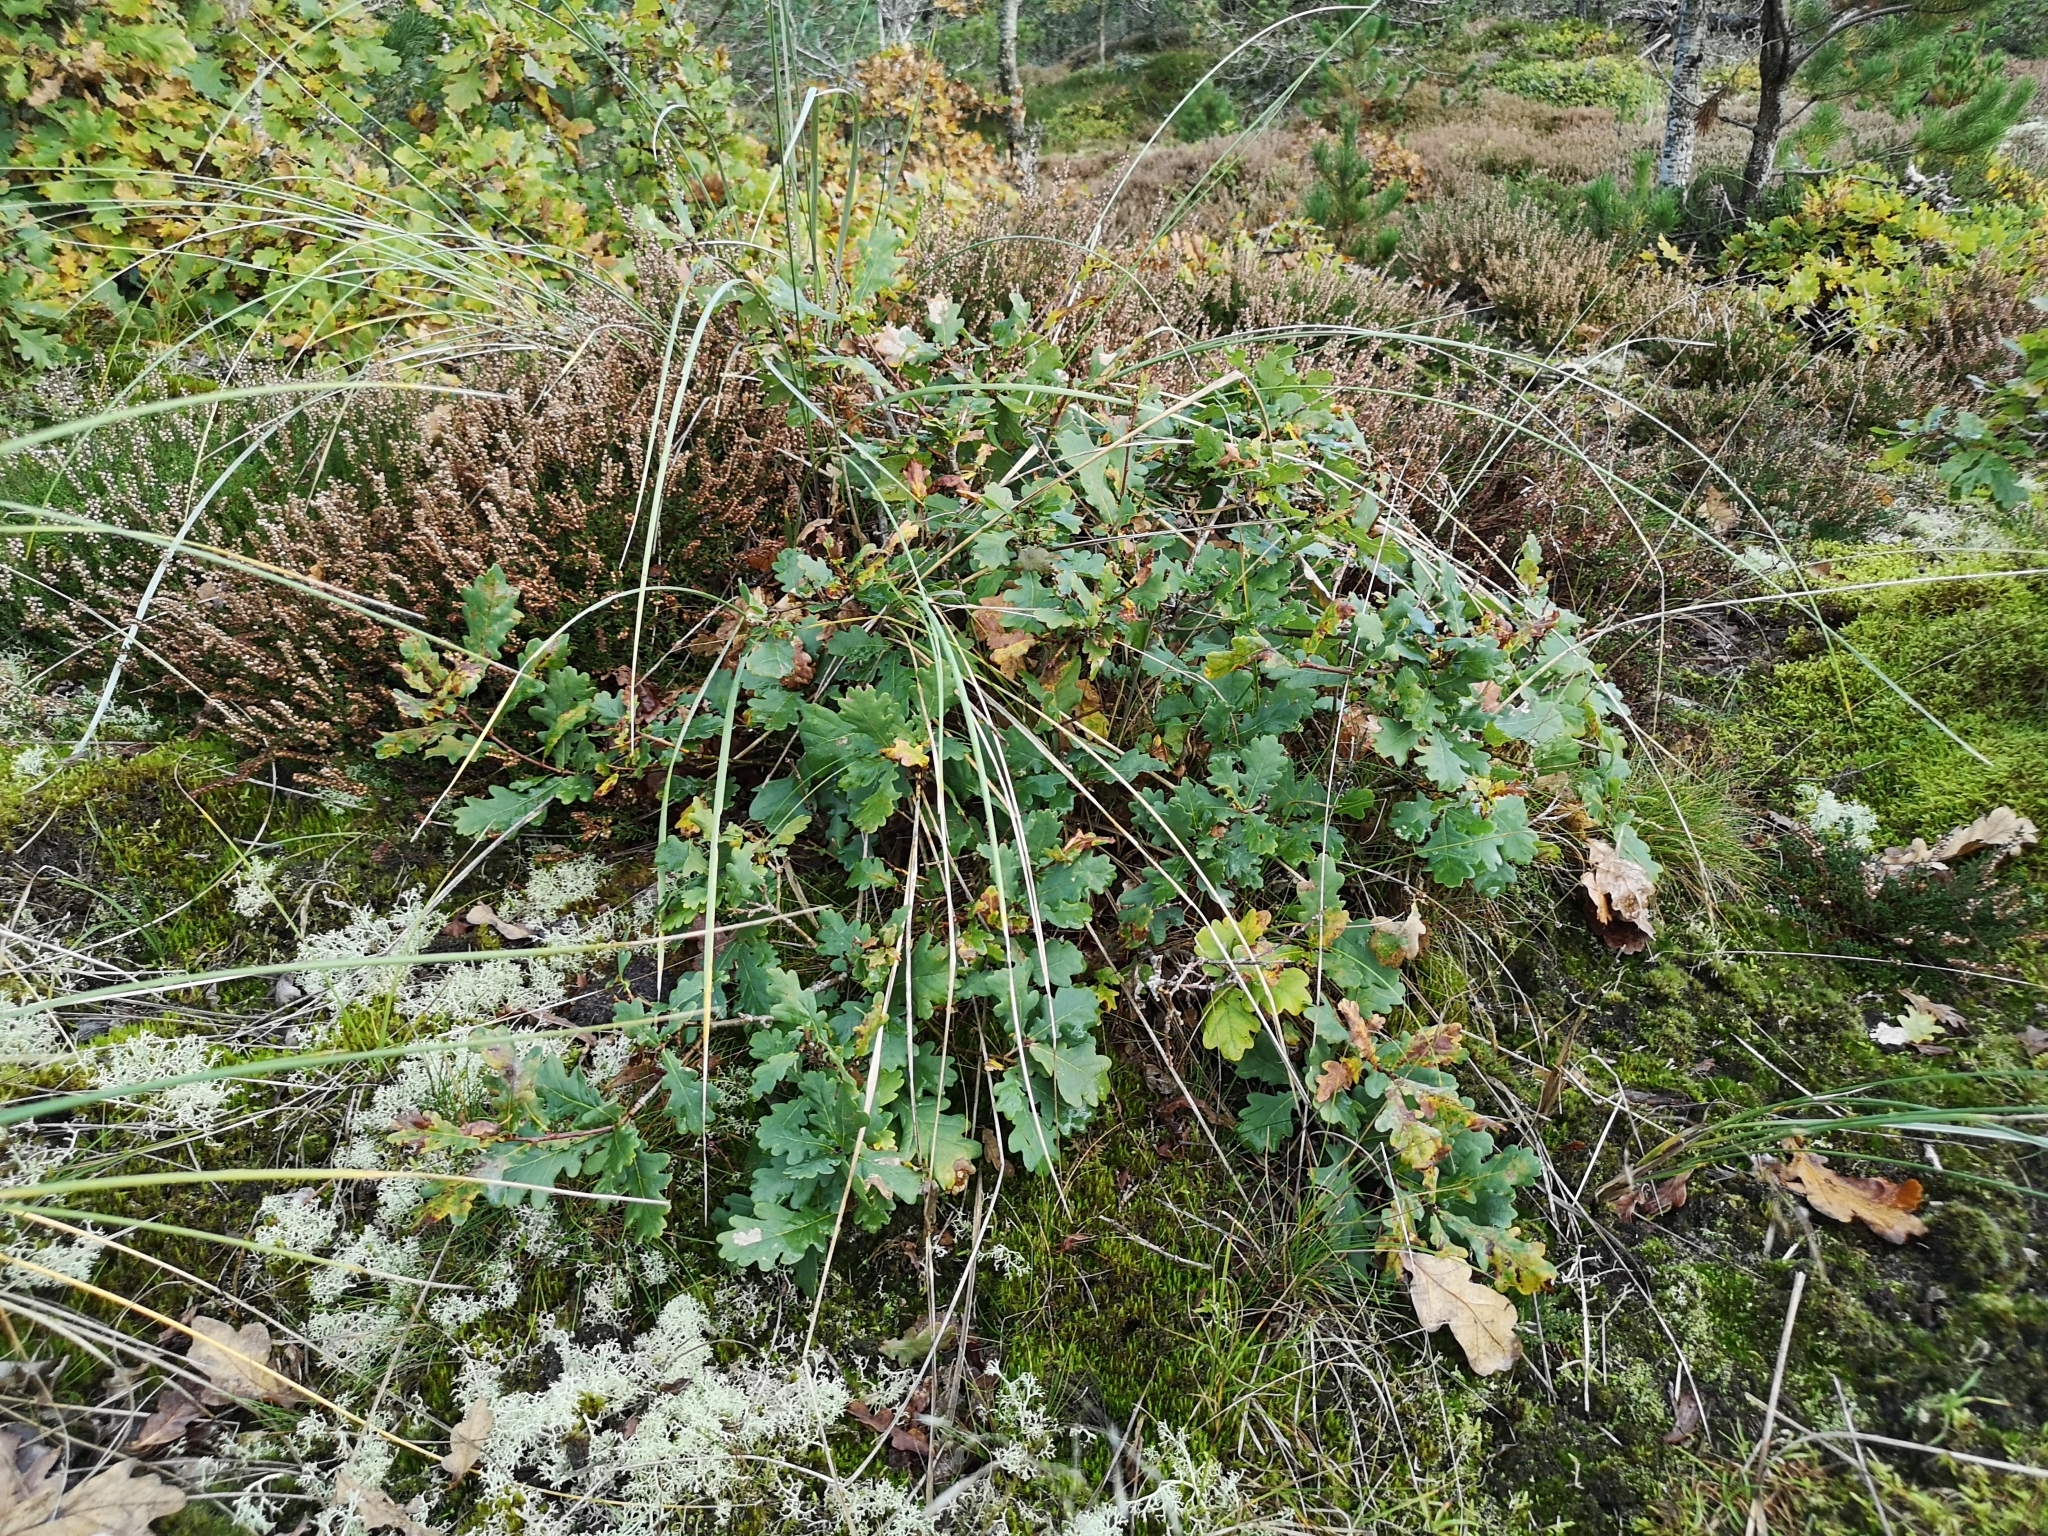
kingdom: Plantae
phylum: Tracheophyta
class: Magnoliopsida
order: Fagales
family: Fagaceae
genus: Quercus
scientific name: Quercus robur
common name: Pedunculate oak
